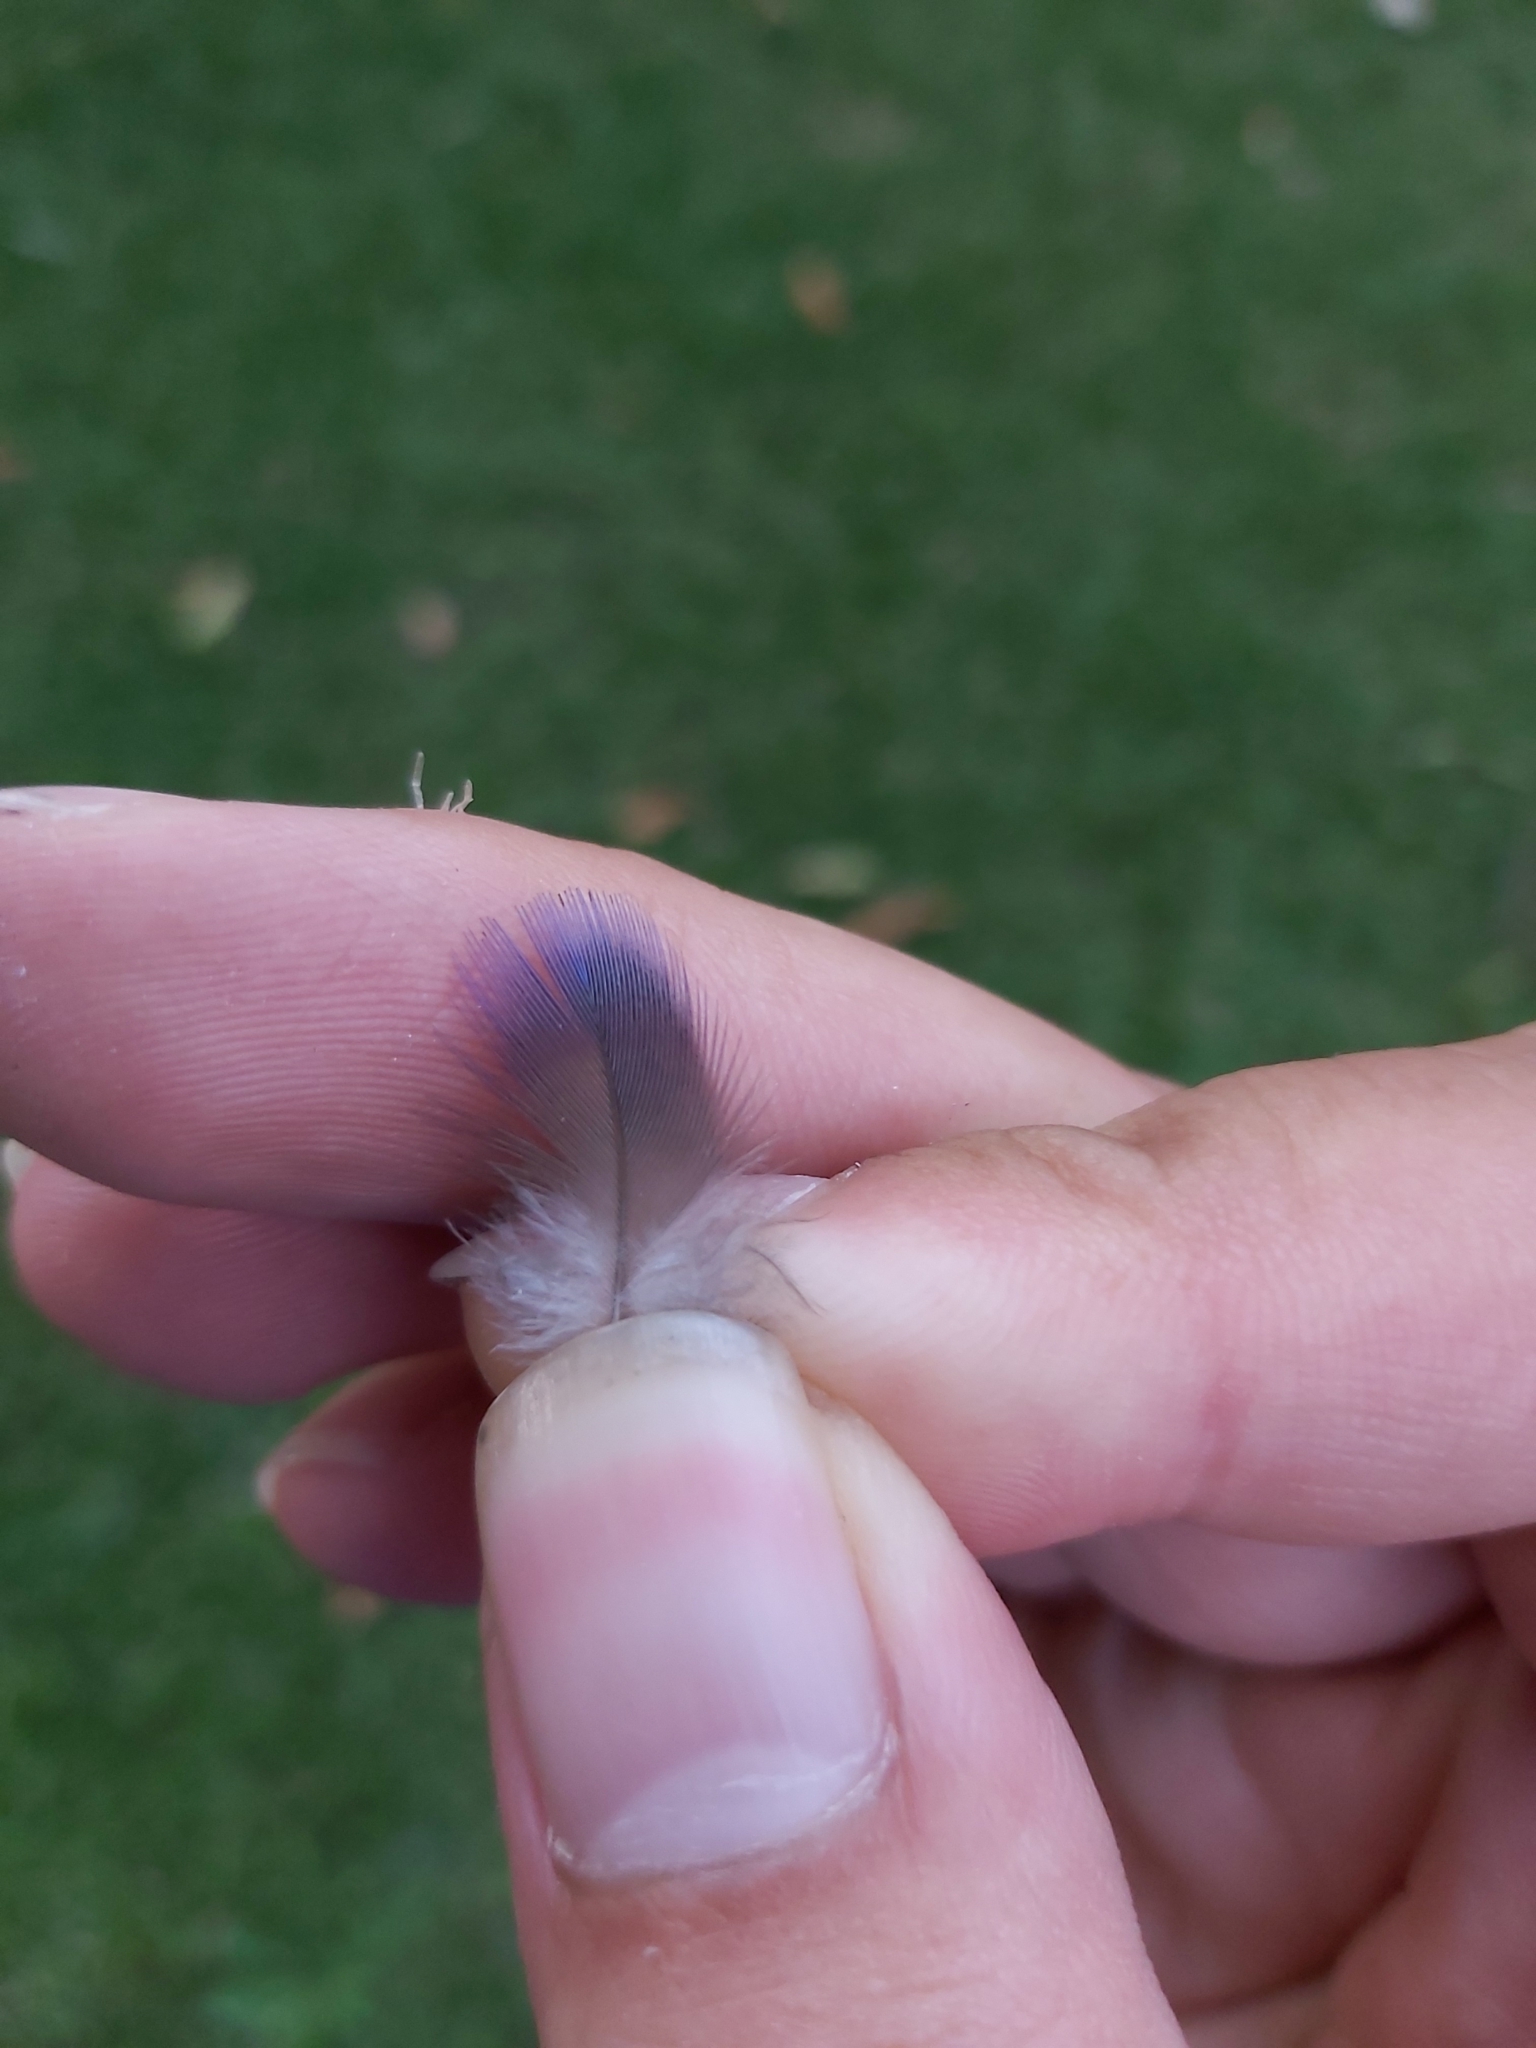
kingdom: Animalia
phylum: Chordata
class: Aves
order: Psittaciformes
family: Psittacidae
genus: Trichoglossus
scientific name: Trichoglossus haematodus
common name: Coconut lorikeet
